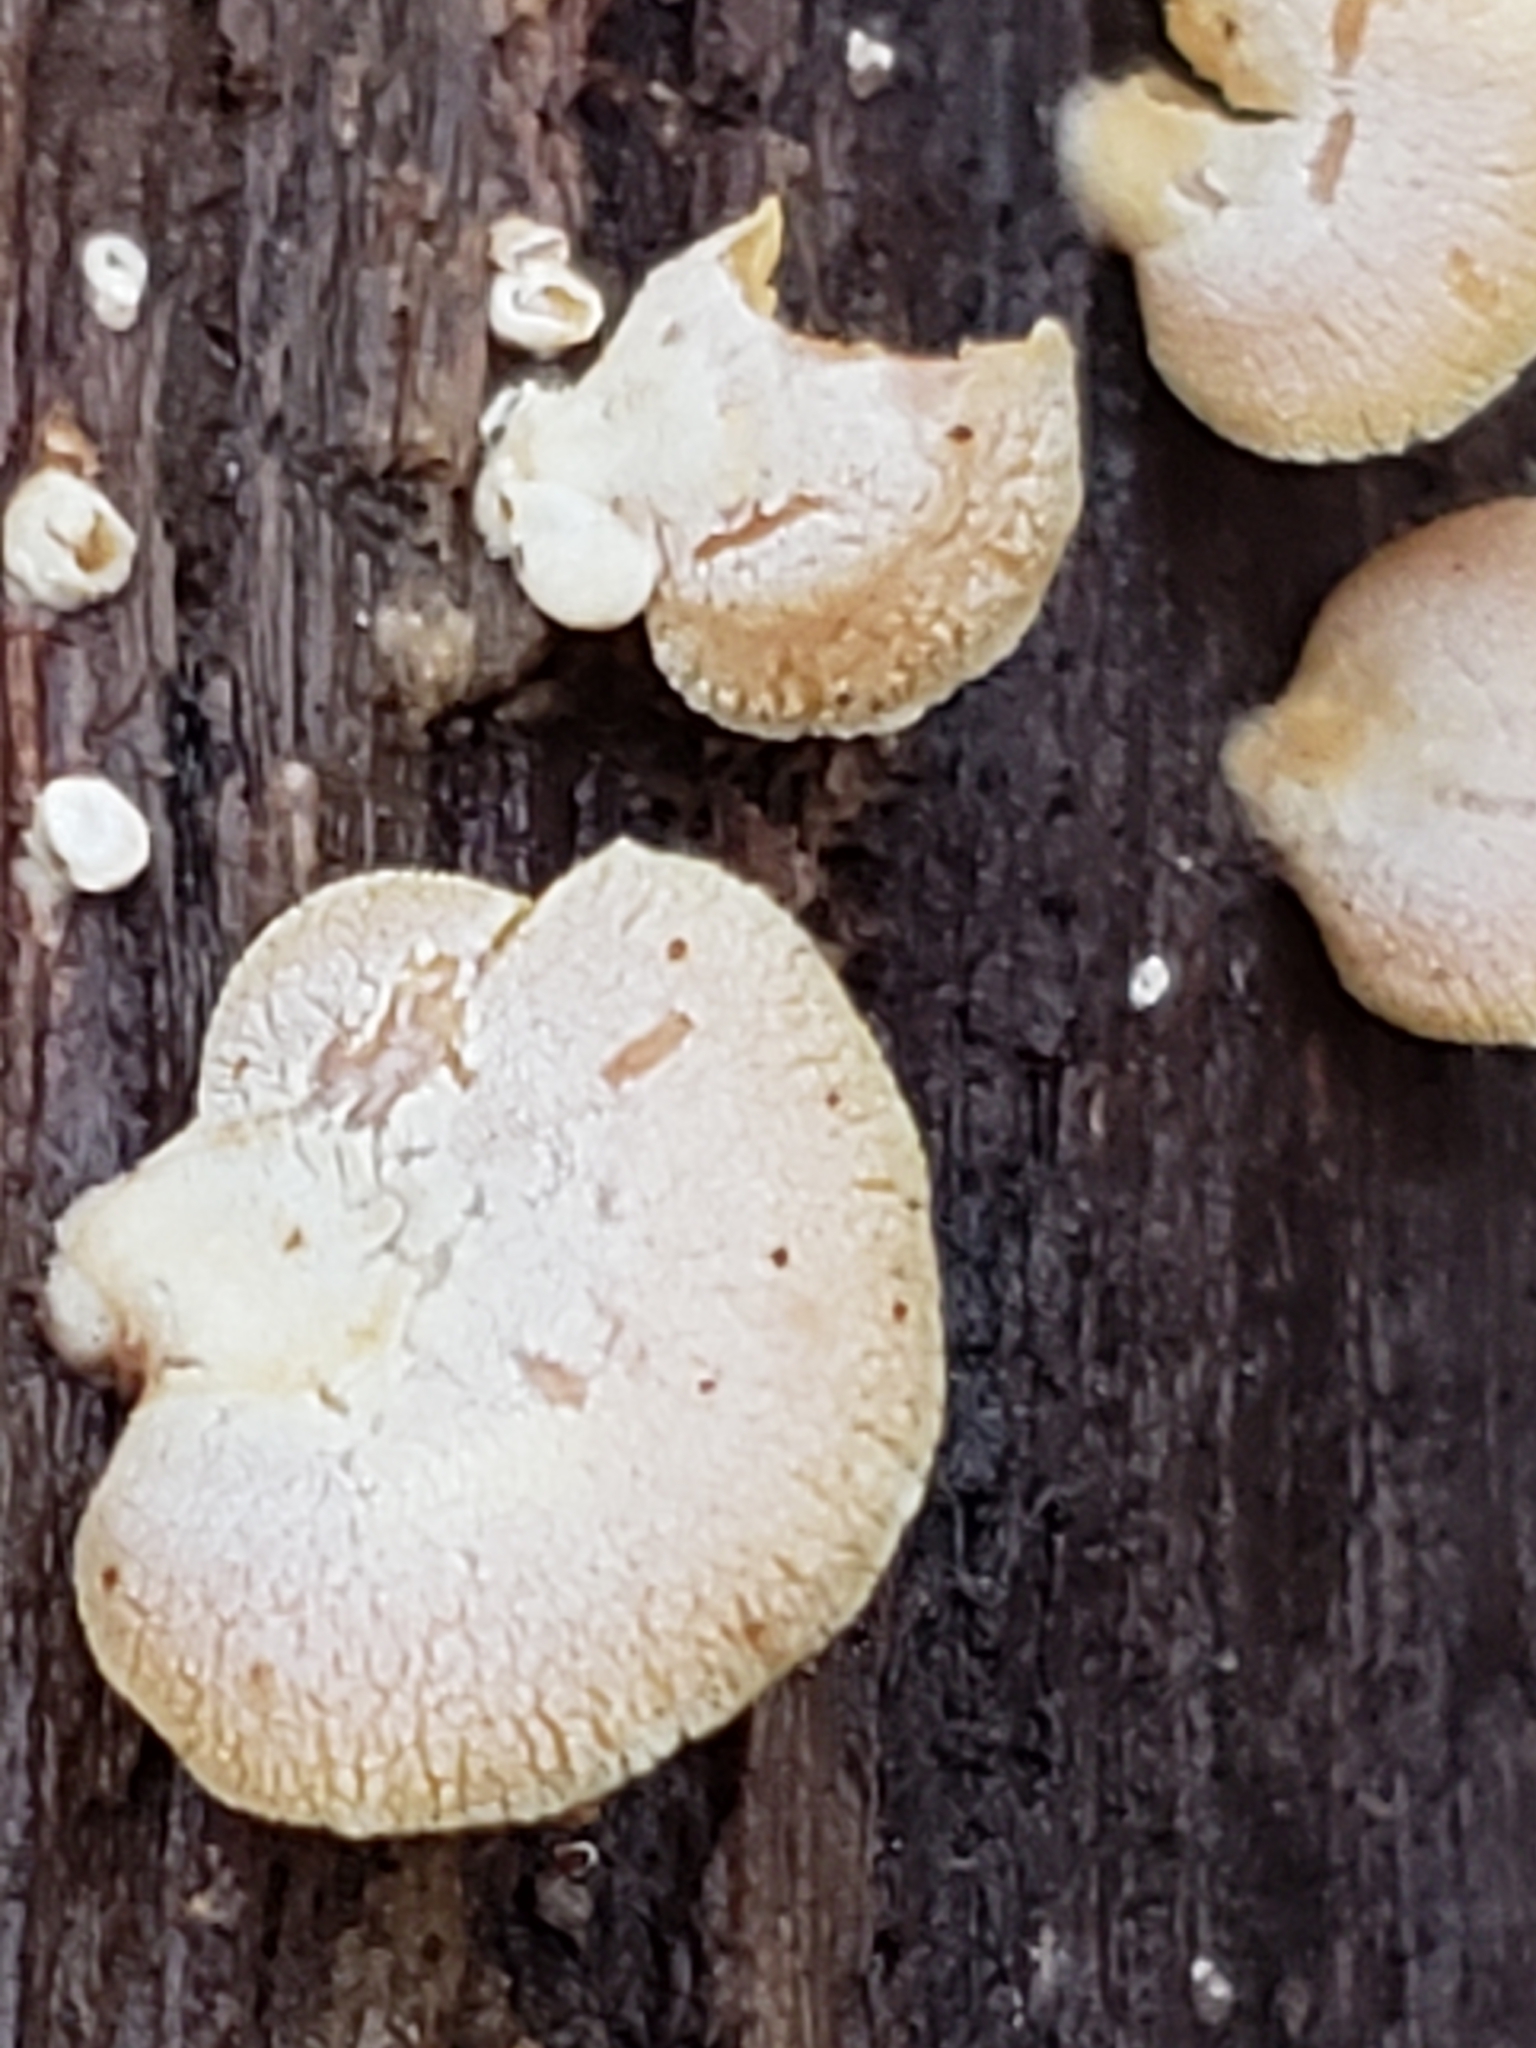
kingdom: Fungi
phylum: Basidiomycota
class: Agaricomycetes
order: Agaricales
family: Mycenaceae
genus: Panellus
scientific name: Panellus stipticus
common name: Bitter oysterling
